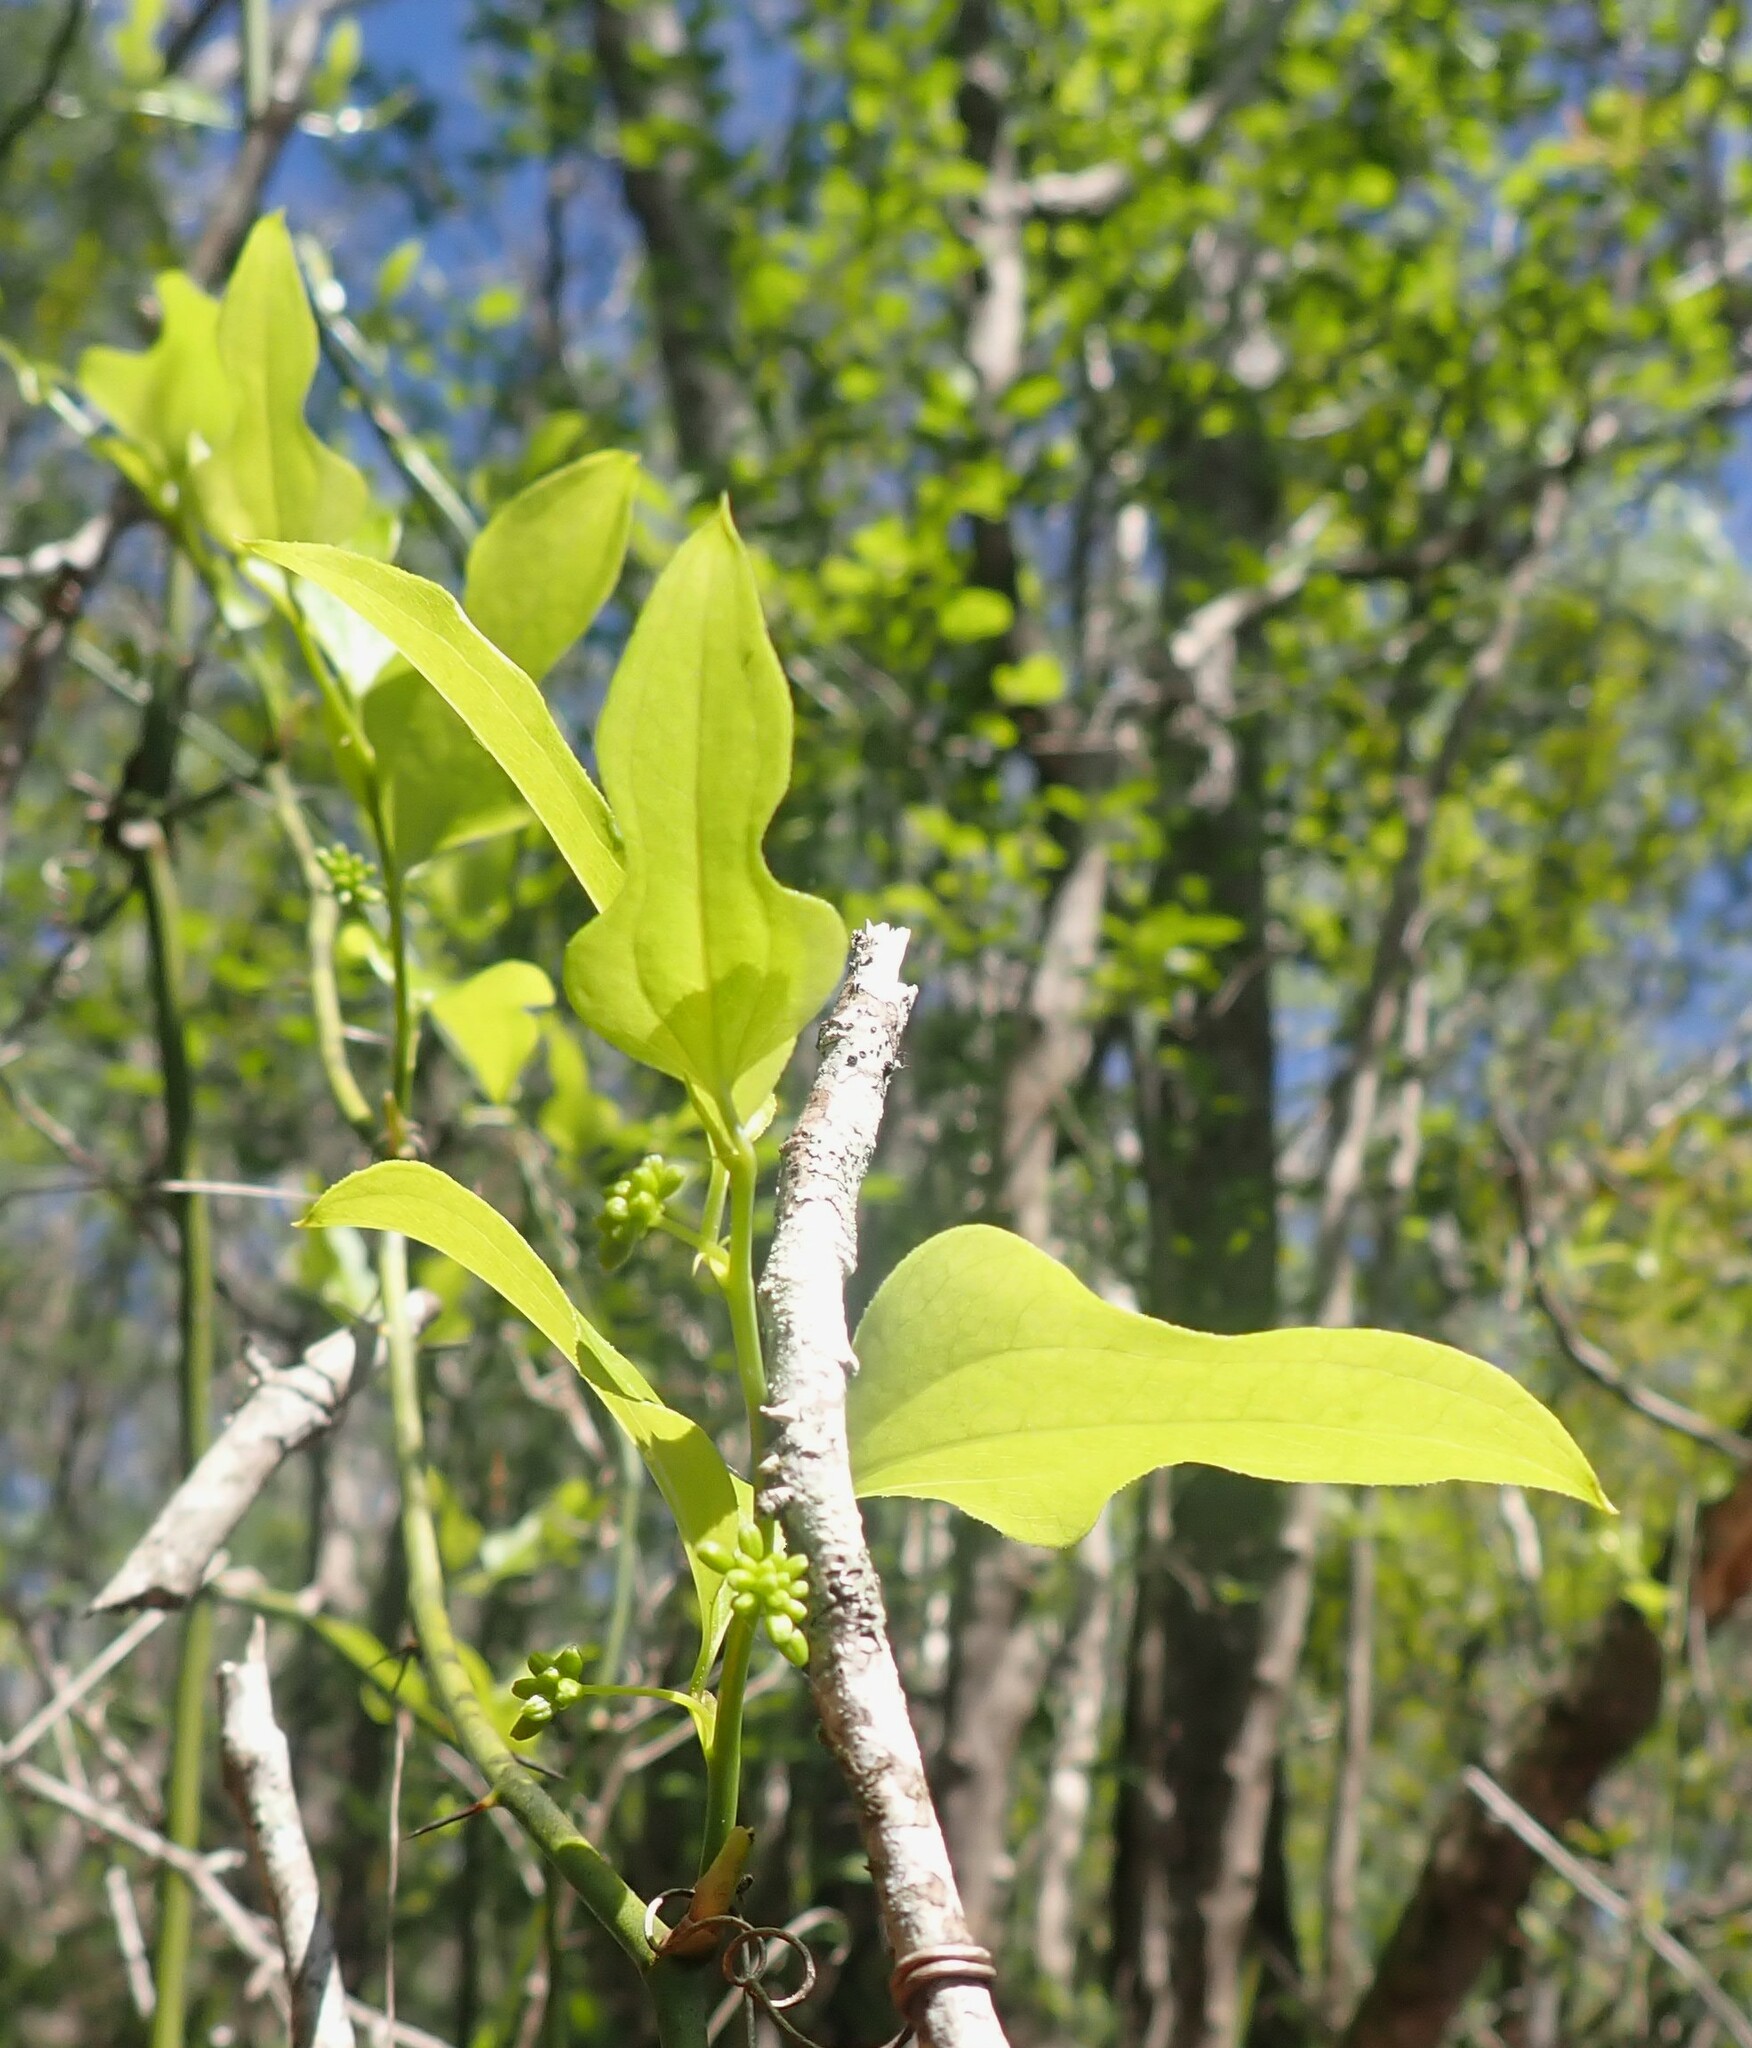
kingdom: Plantae
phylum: Tracheophyta
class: Liliopsida
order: Liliales
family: Smilacaceae
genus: Smilax
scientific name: Smilax tamnoides
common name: Hellfetter
